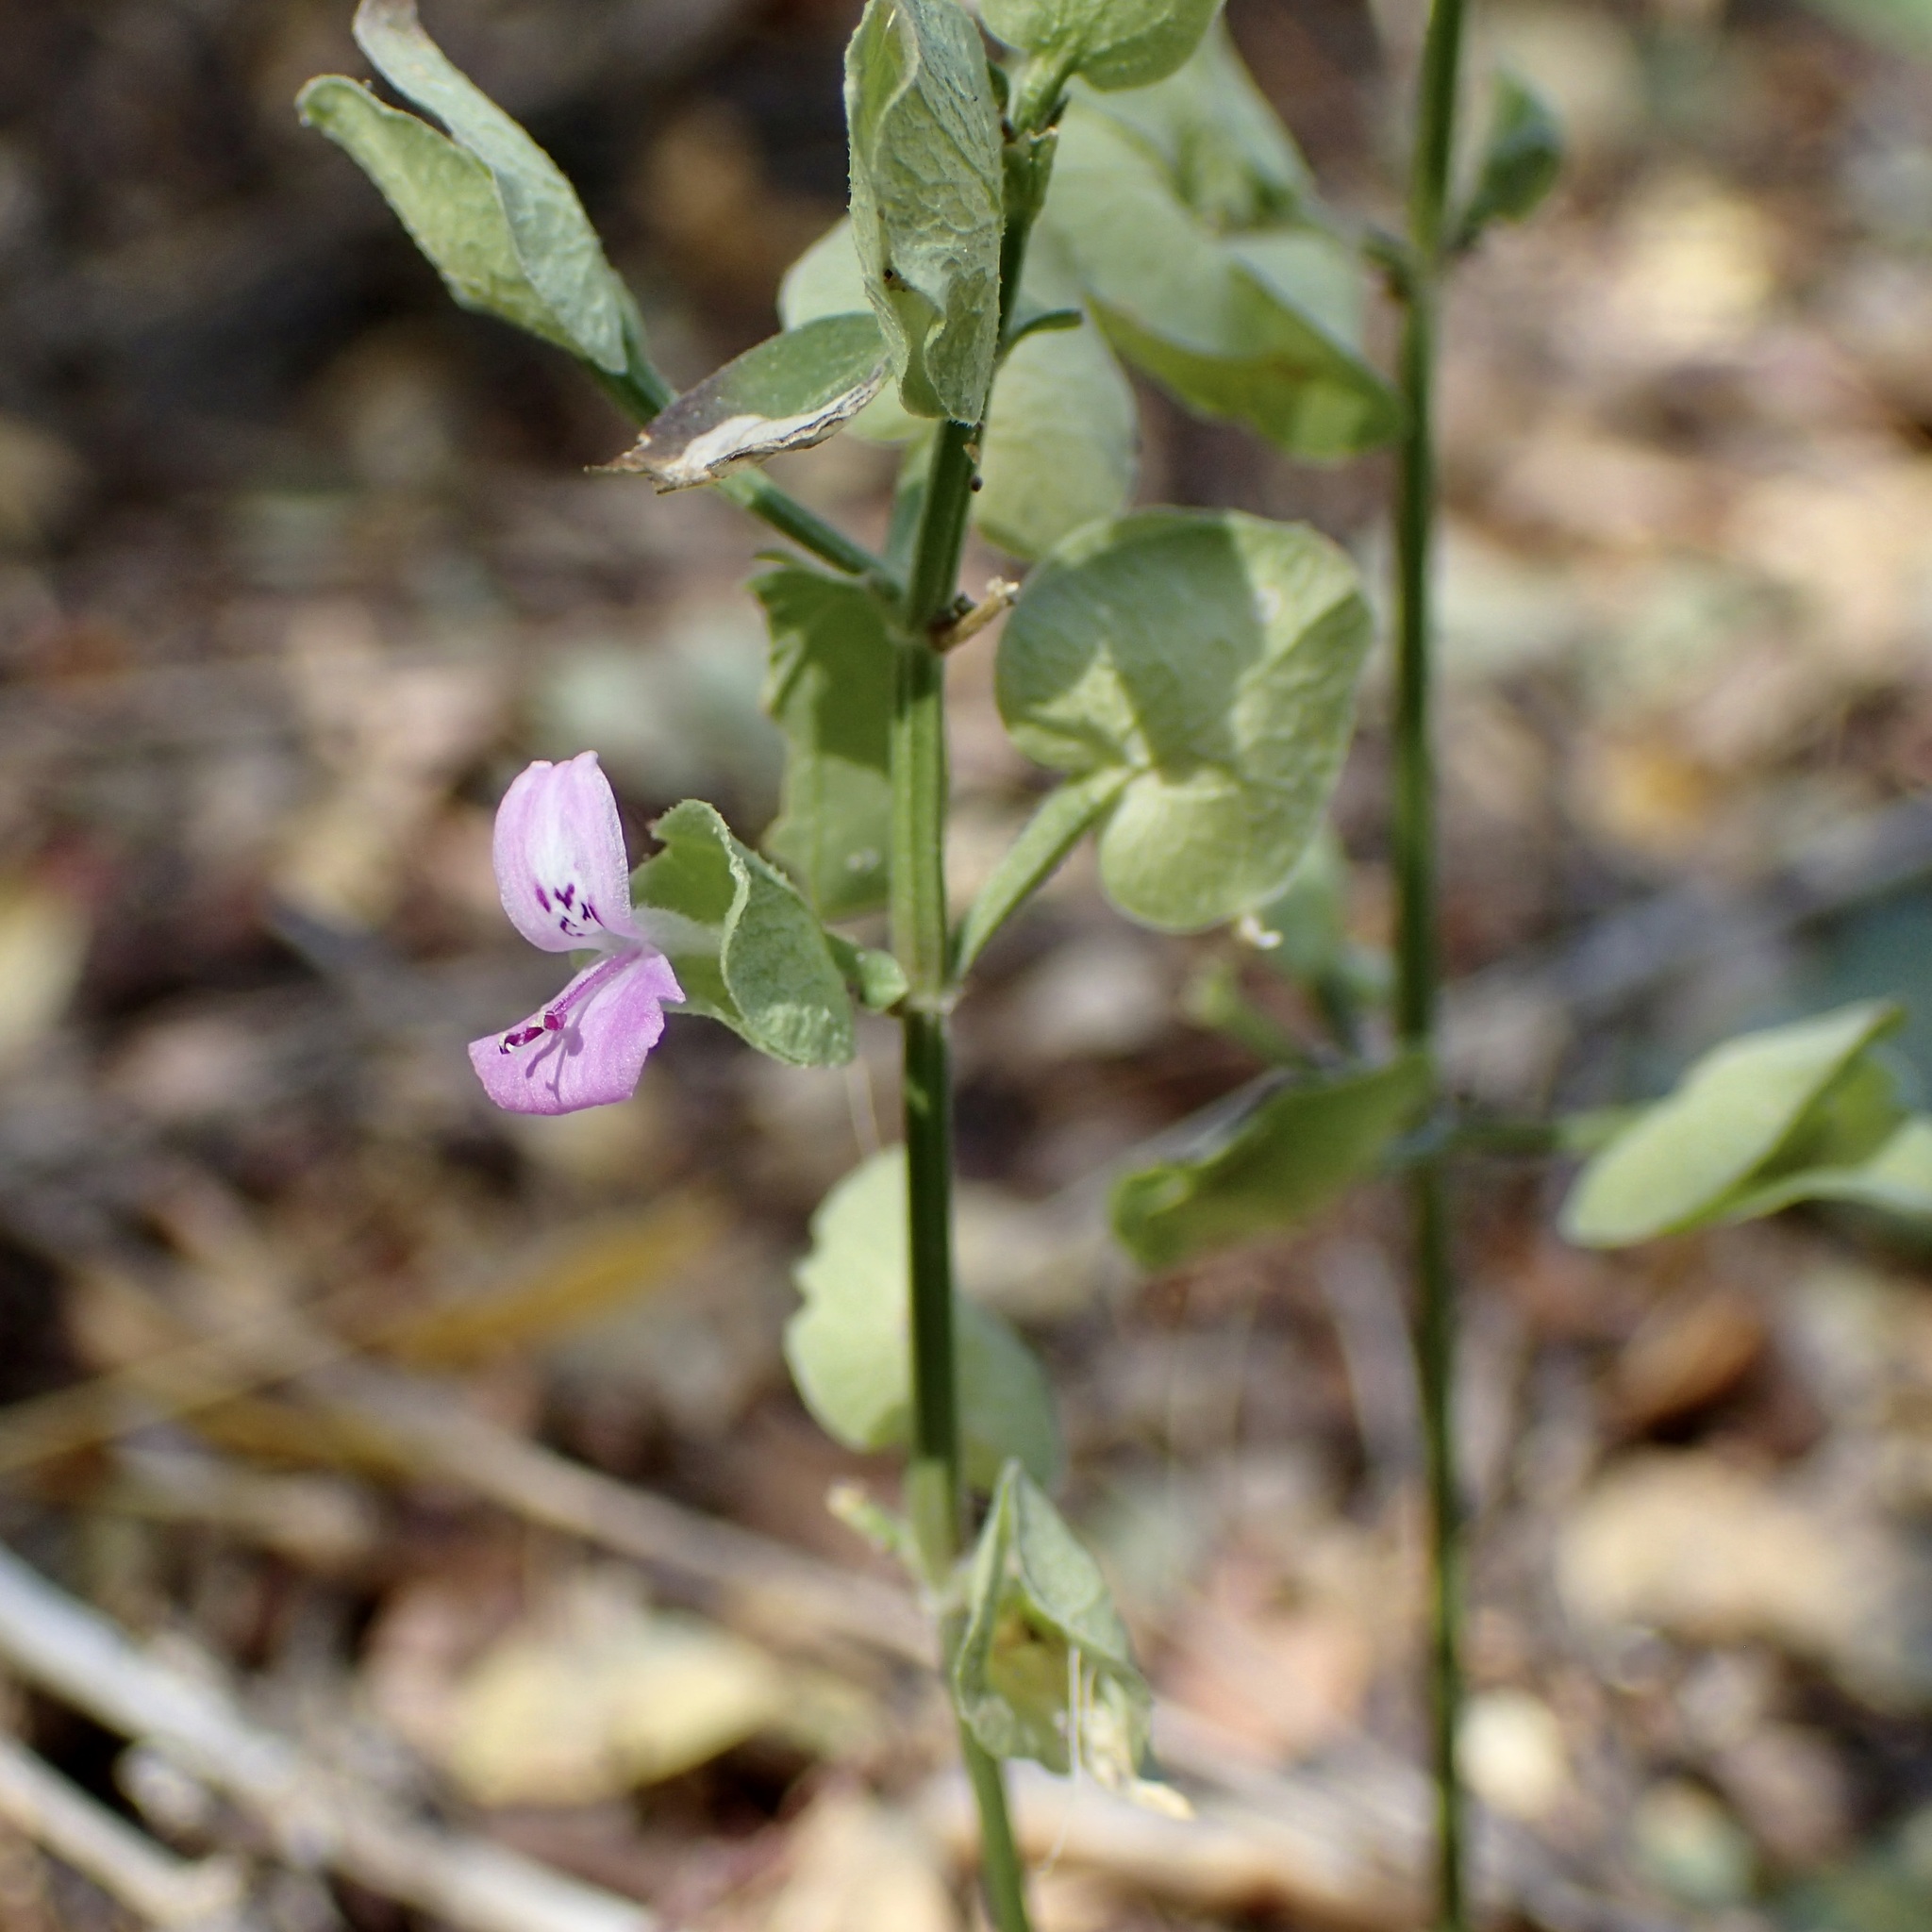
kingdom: Plantae
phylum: Tracheophyta
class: Magnoliopsida
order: Lamiales
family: Acanthaceae
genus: Dicliptera
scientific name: Dicliptera resupinata
